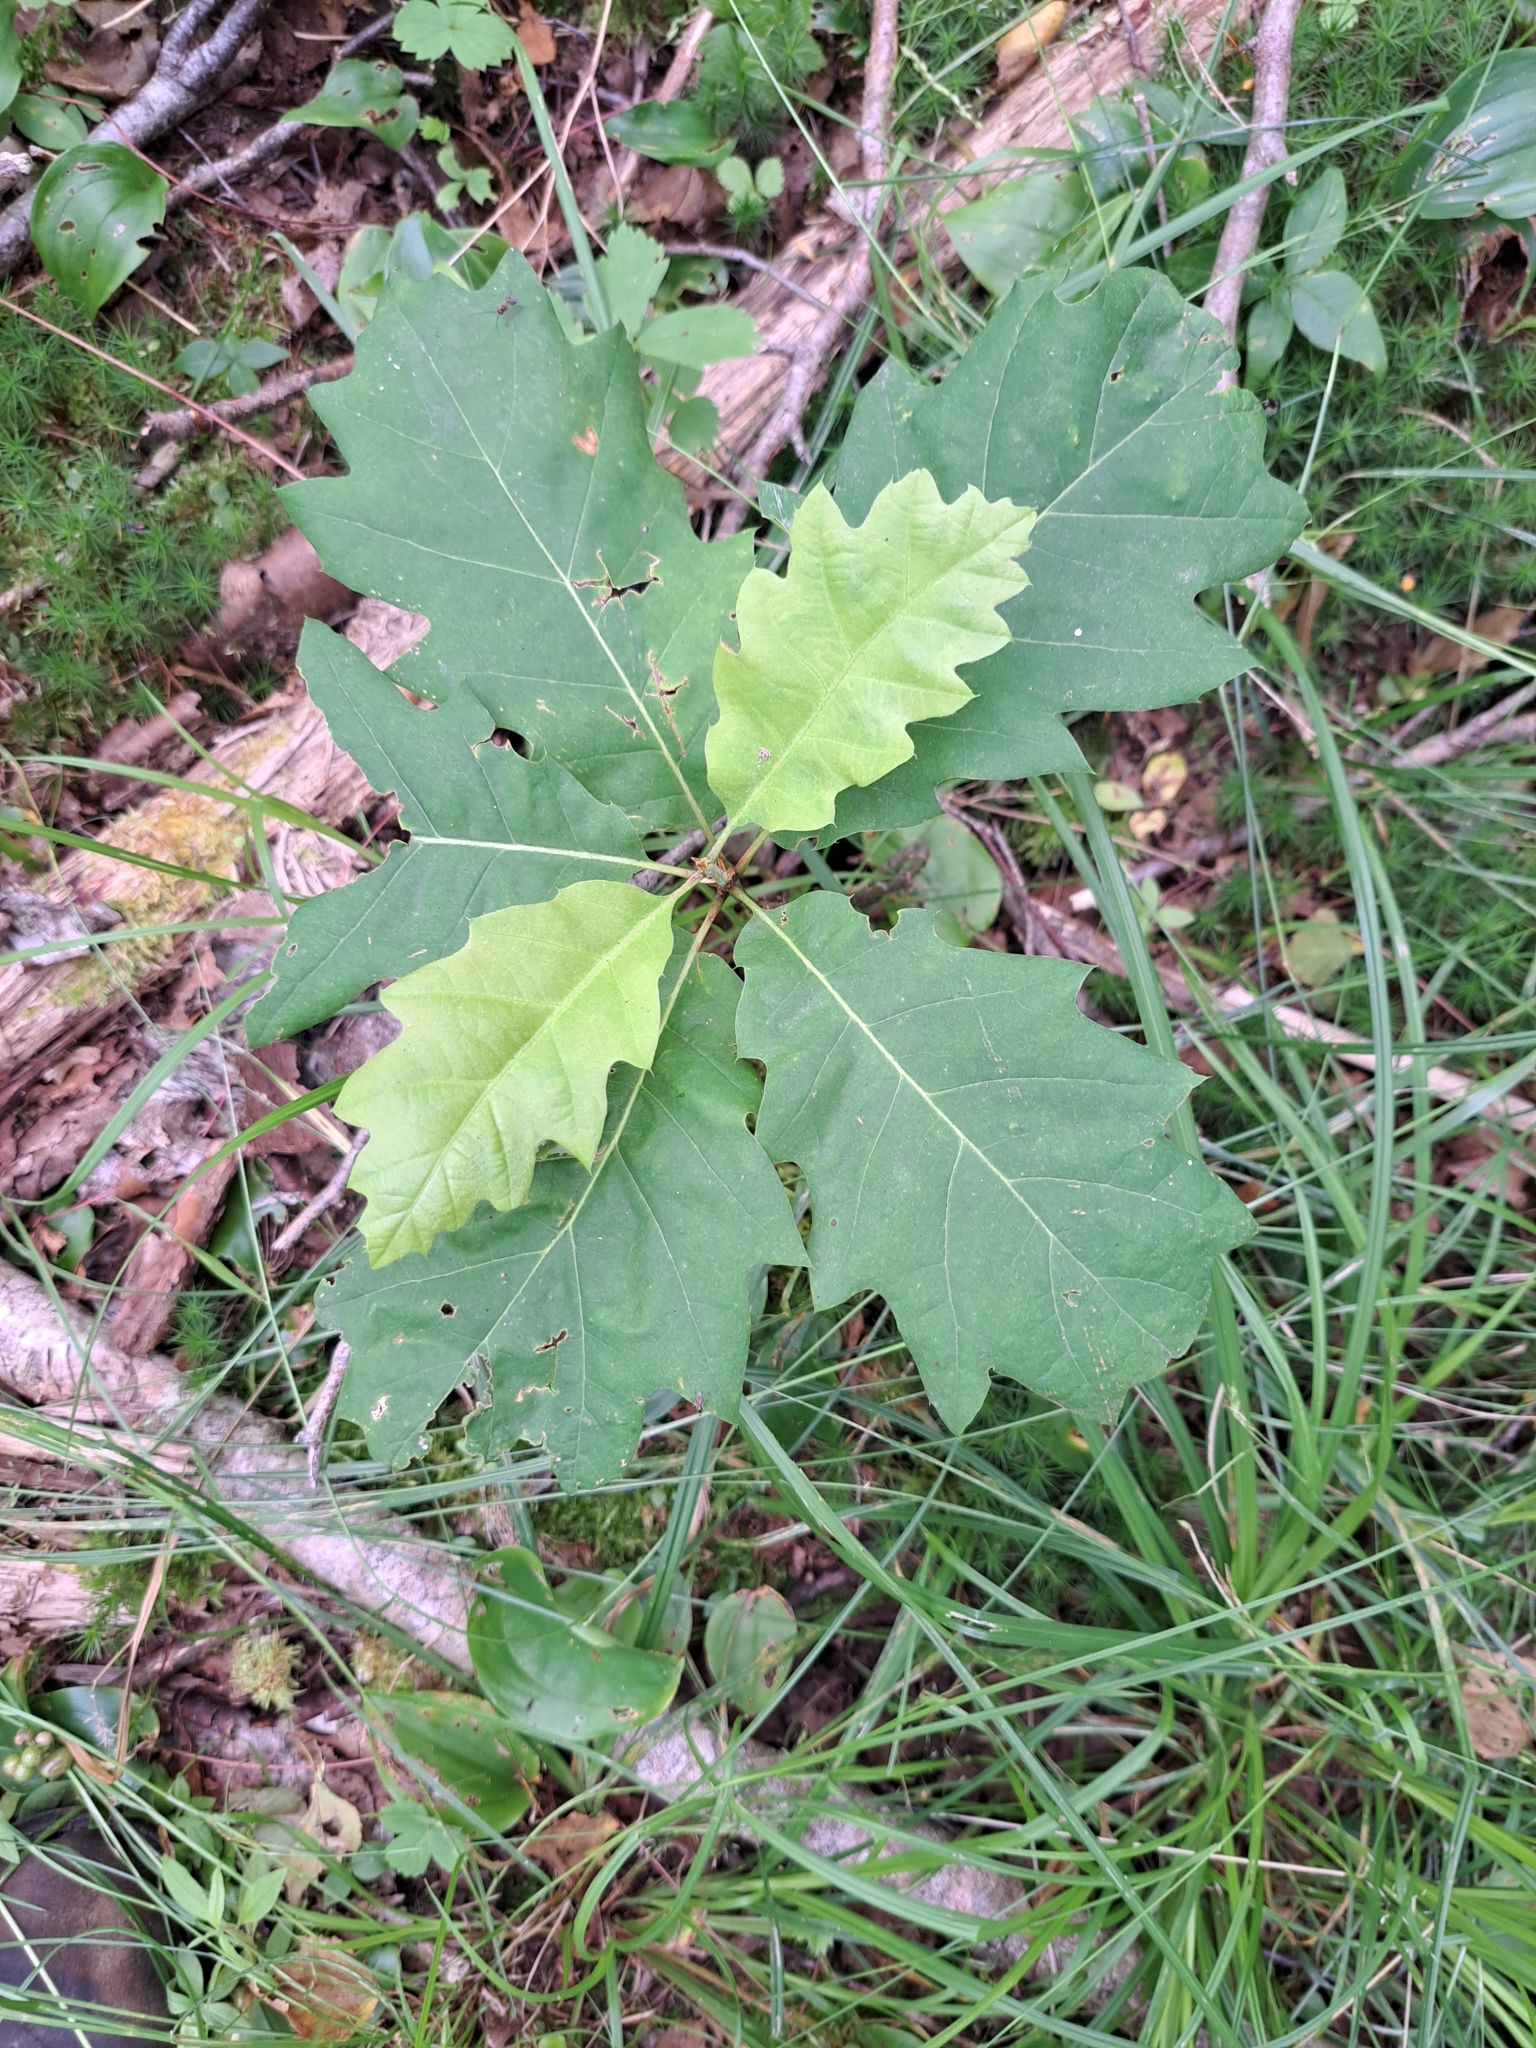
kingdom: Plantae
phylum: Tracheophyta
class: Magnoliopsida
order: Fagales
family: Fagaceae
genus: Quercus
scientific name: Quercus rubra
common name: Red oak
